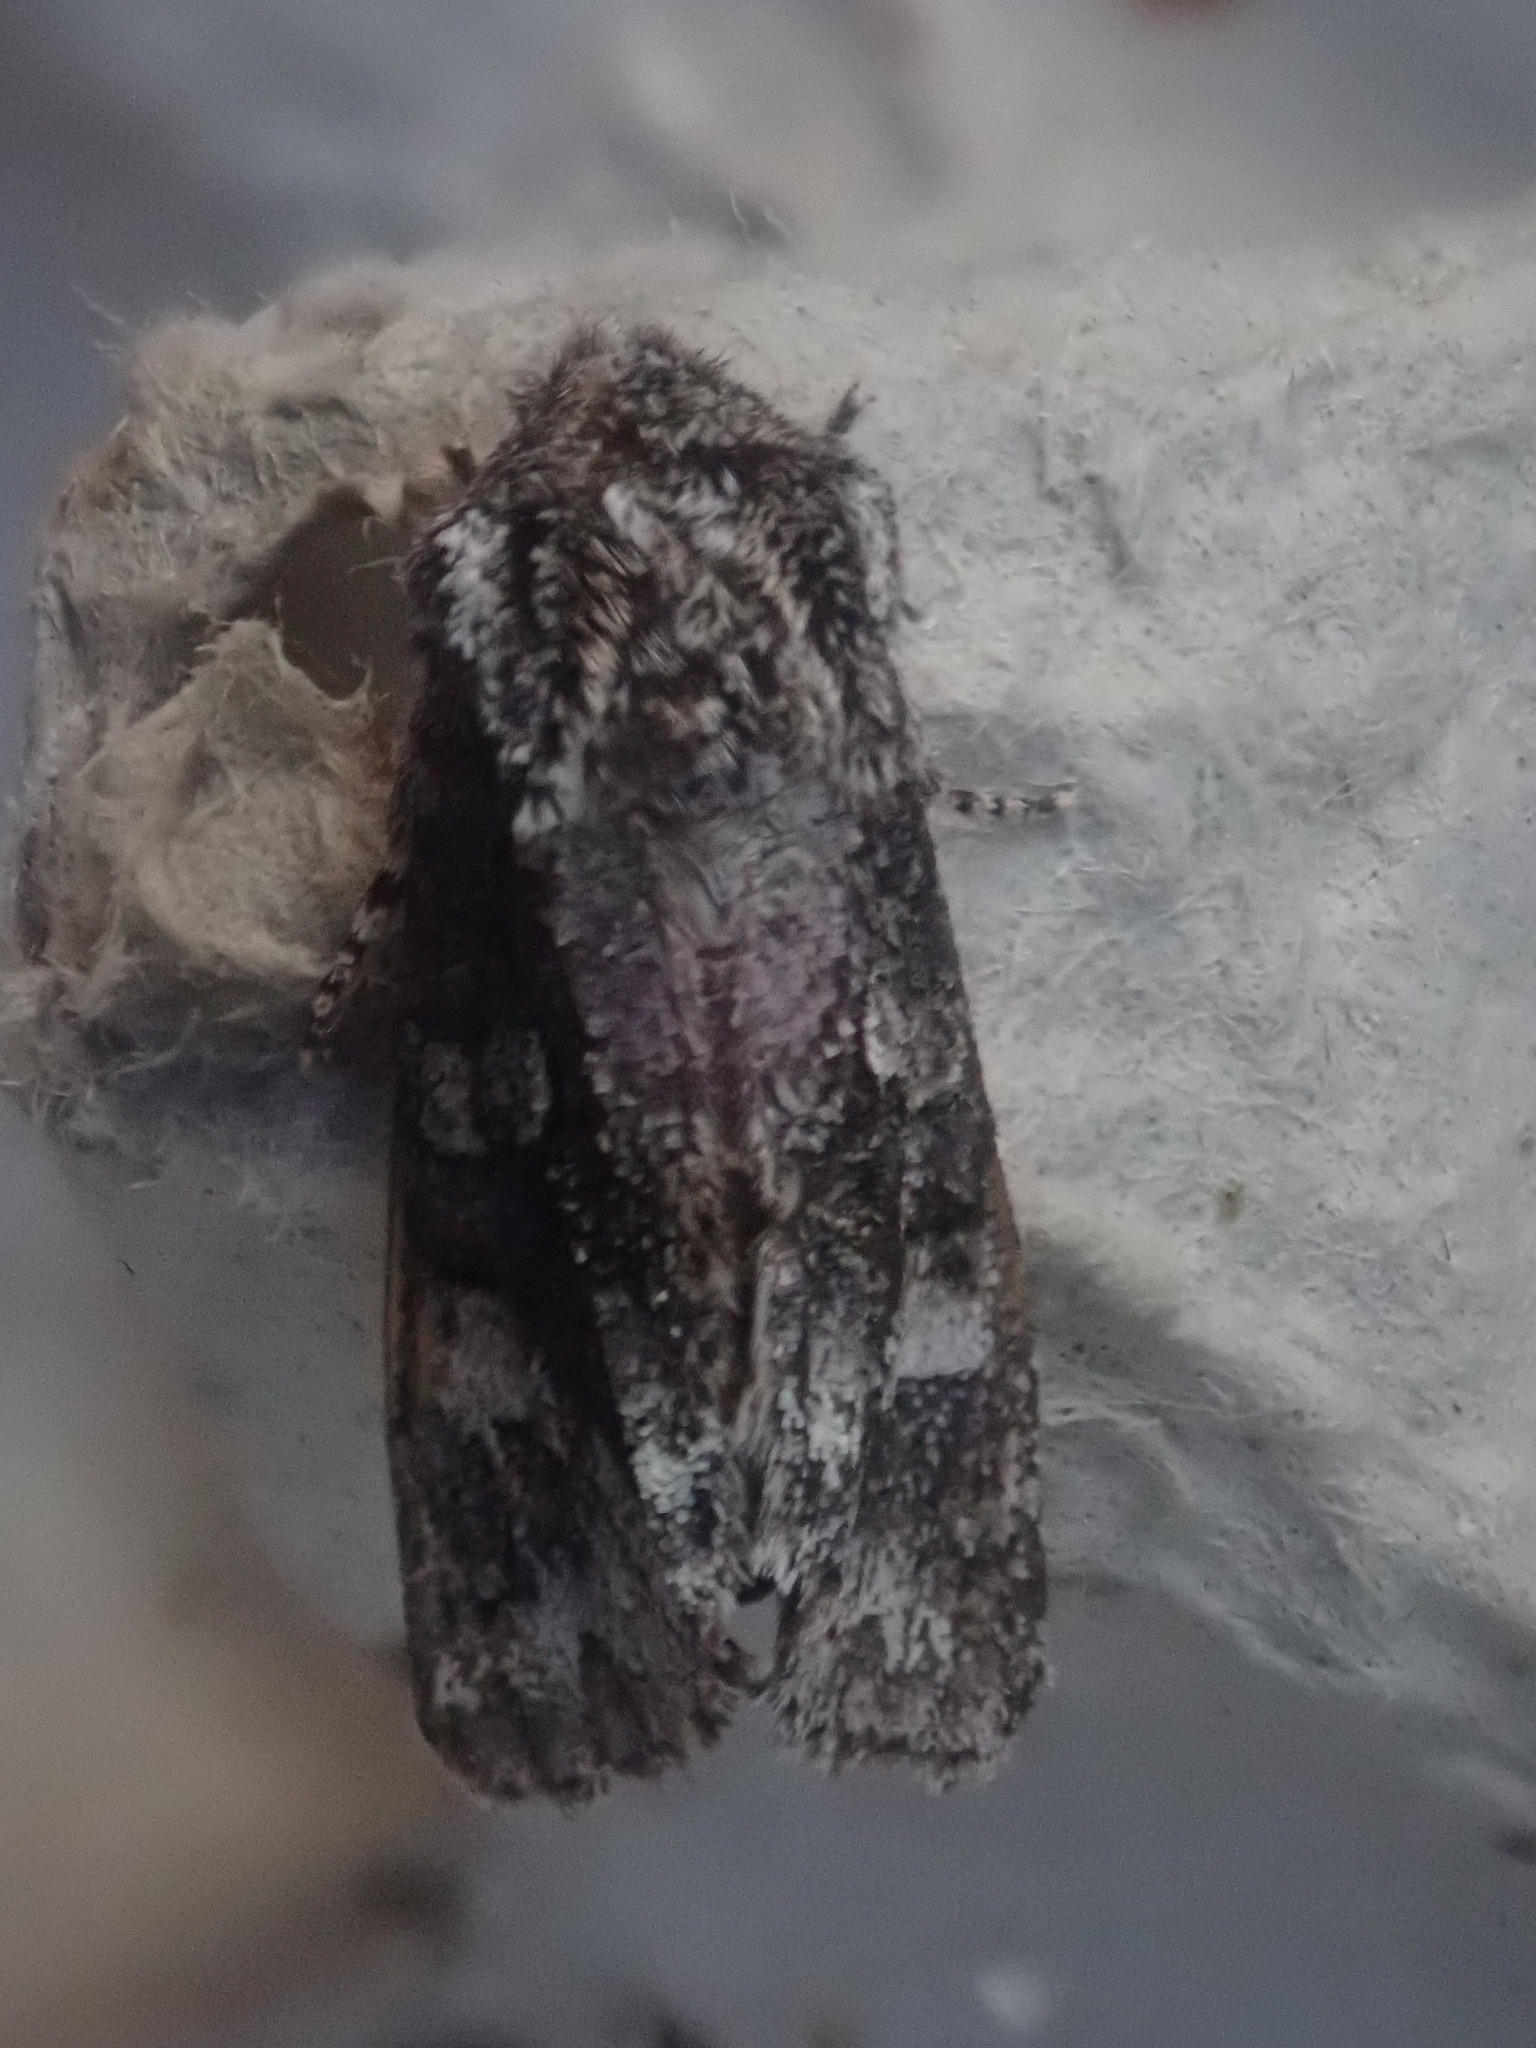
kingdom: Animalia
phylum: Arthropoda
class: Insecta
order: Lepidoptera
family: Noctuidae
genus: Psaphida
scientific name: Psaphida resumens
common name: Figure-eight sallow
